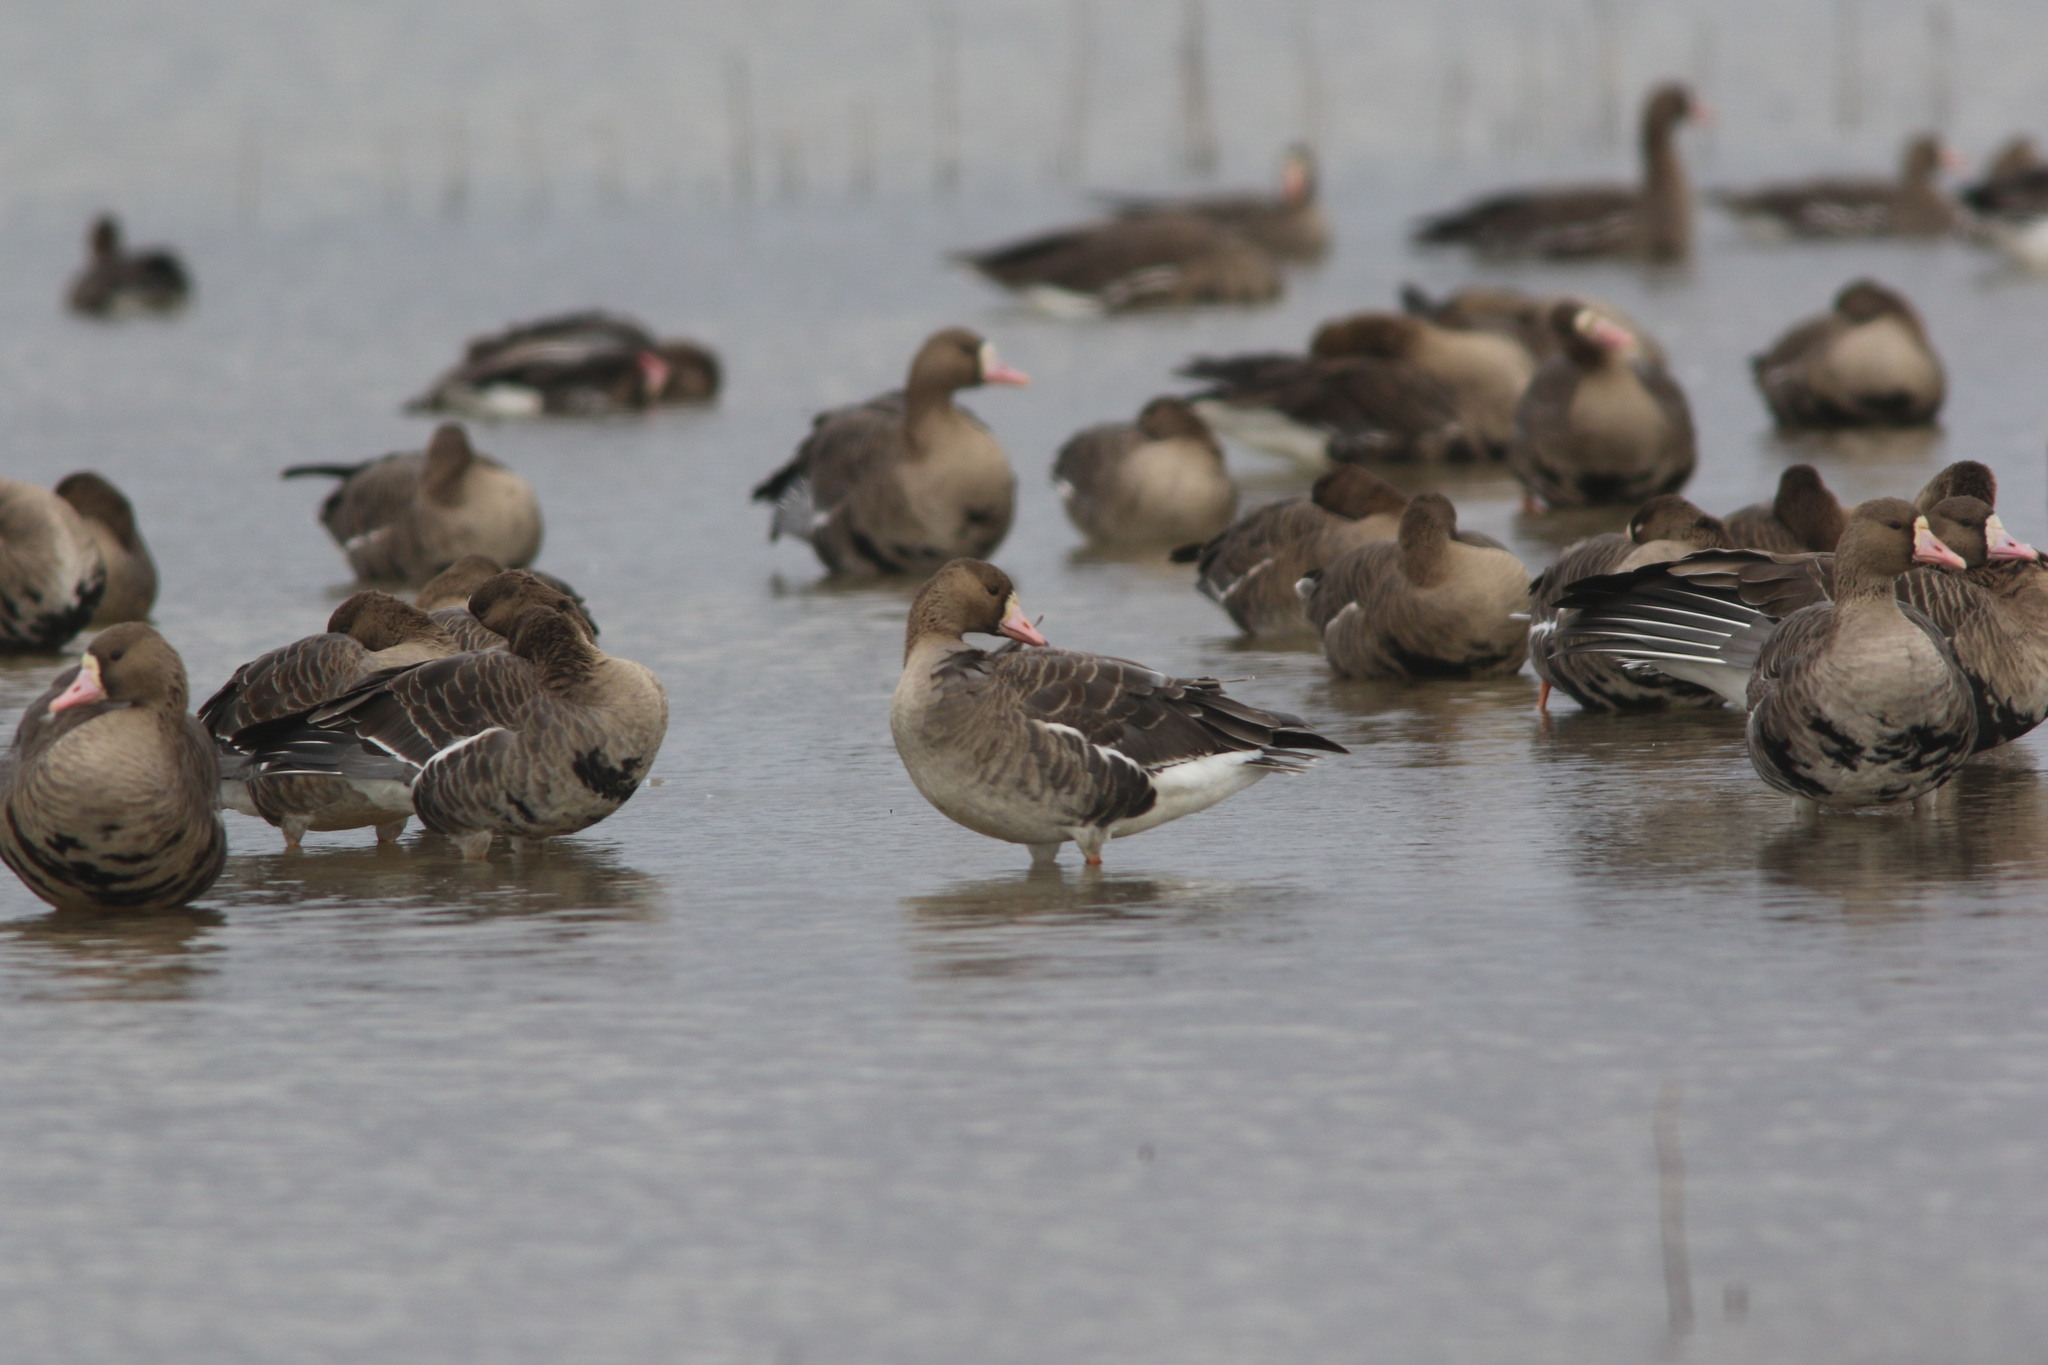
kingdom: Animalia
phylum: Chordata
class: Aves
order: Anseriformes
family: Anatidae
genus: Anser
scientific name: Anser albifrons
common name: Greater white-fronted goose
